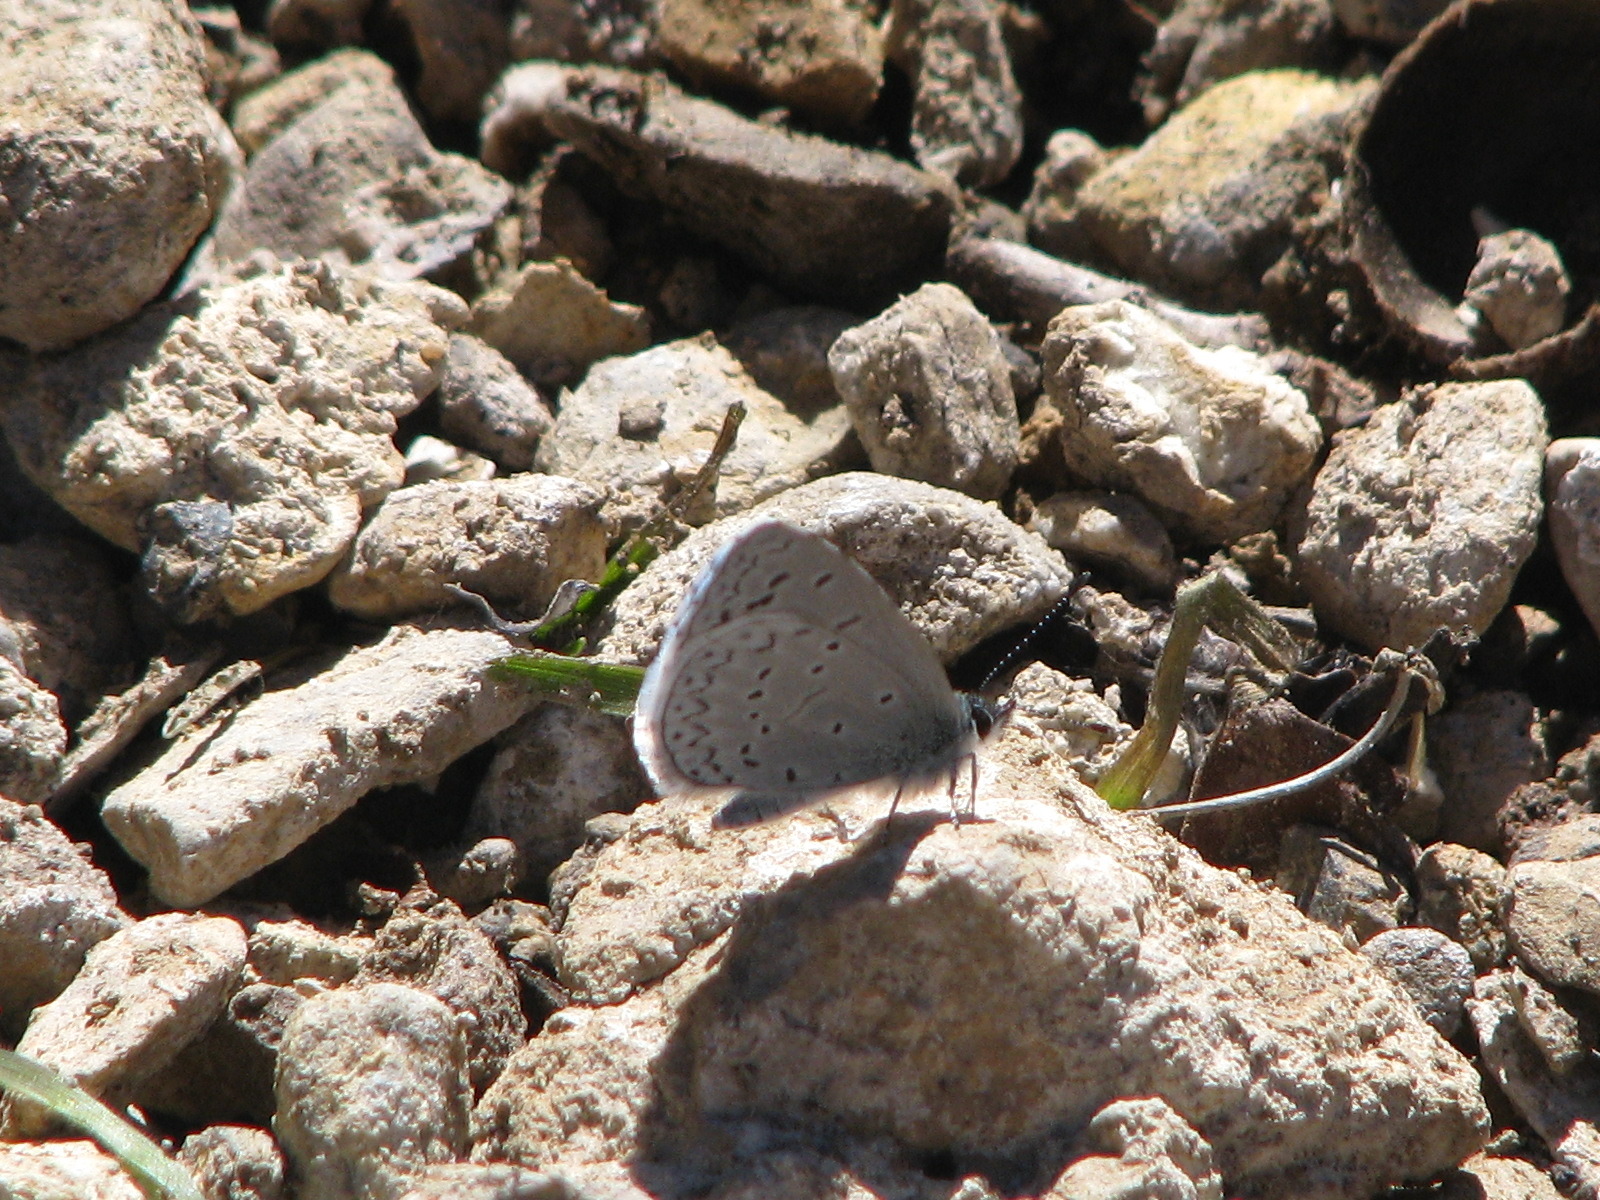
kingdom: Animalia
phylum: Arthropoda
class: Insecta
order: Lepidoptera
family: Lycaenidae
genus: Celastrina
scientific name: Celastrina argiolus
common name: Holly blue
